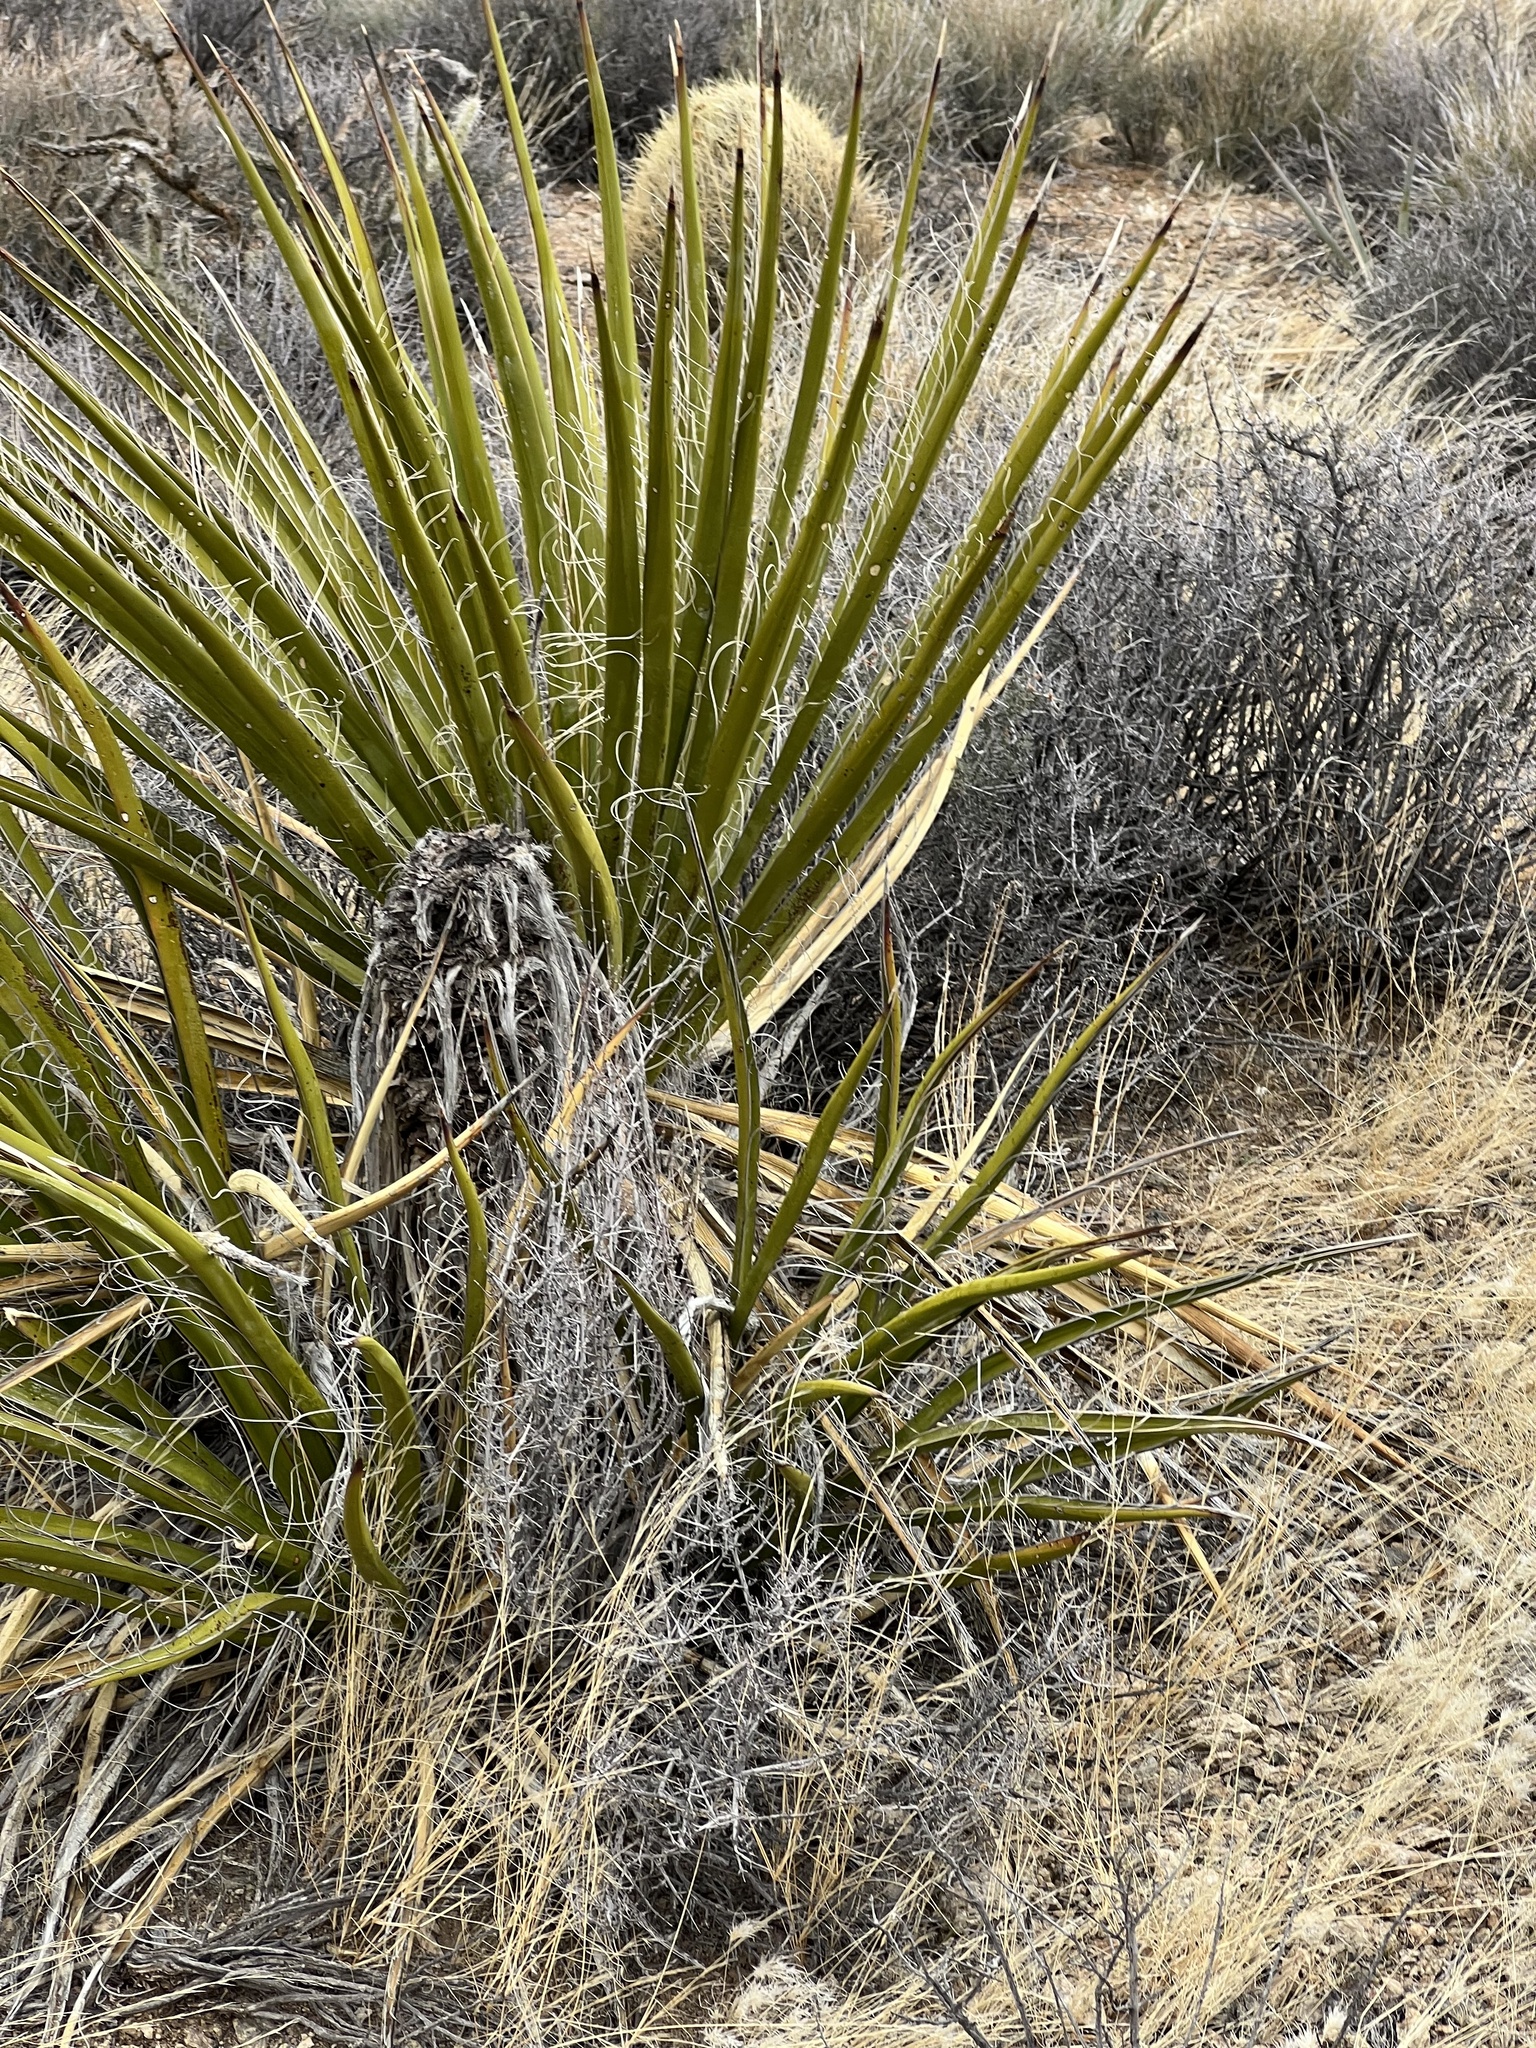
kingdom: Plantae
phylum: Tracheophyta
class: Liliopsida
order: Asparagales
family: Asparagaceae
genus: Yucca
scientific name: Yucca schidigera
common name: Mojave yucca
